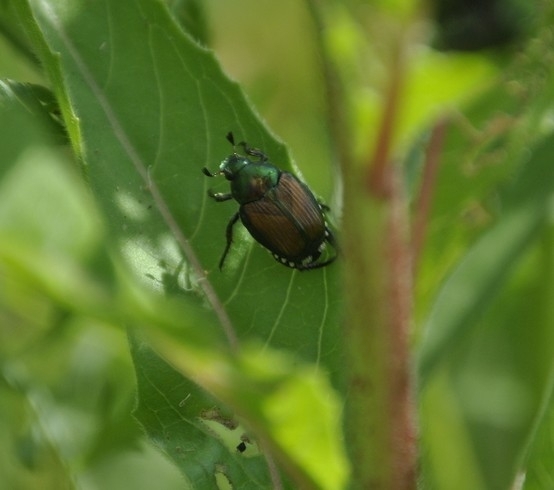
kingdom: Animalia
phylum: Arthropoda
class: Insecta
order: Coleoptera
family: Scarabaeidae
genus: Popillia
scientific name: Popillia japonica
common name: Japanese beetle
